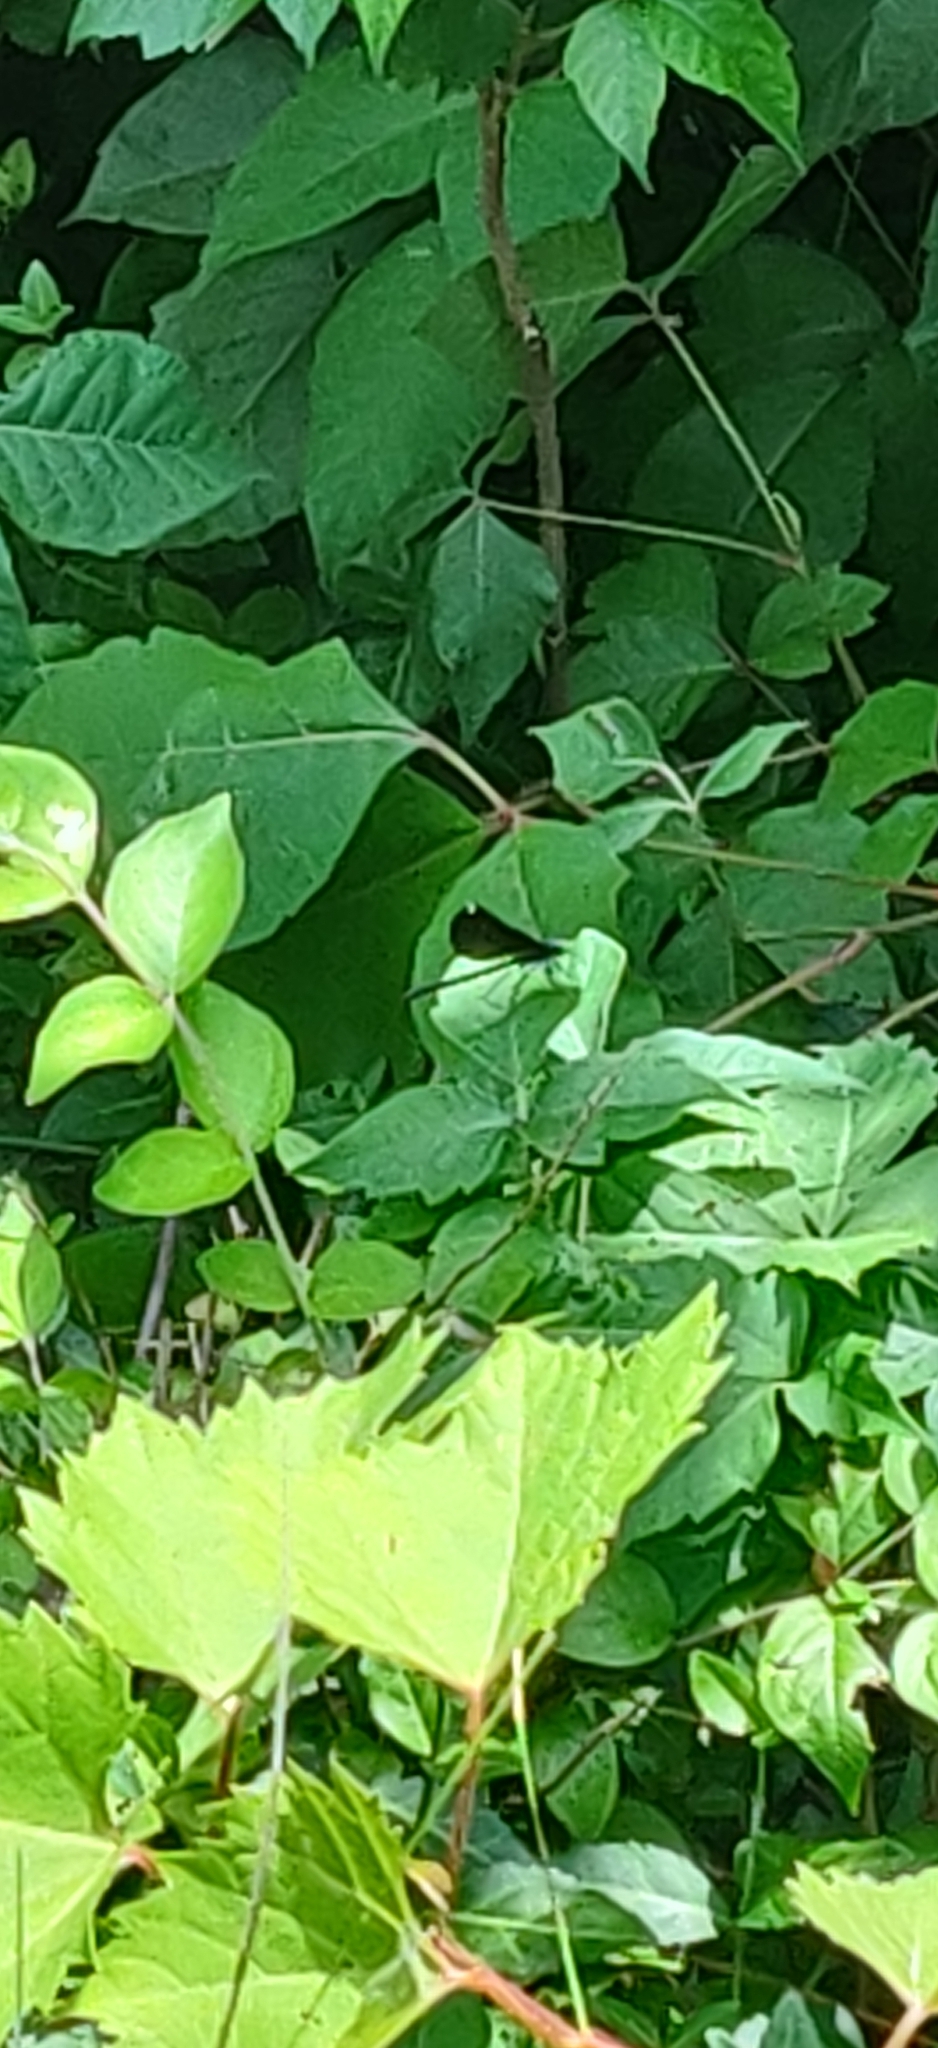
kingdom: Animalia
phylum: Arthropoda
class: Insecta
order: Odonata
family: Calopterygidae
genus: Calopteryx
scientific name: Calopteryx maculata
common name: Ebony jewelwing
